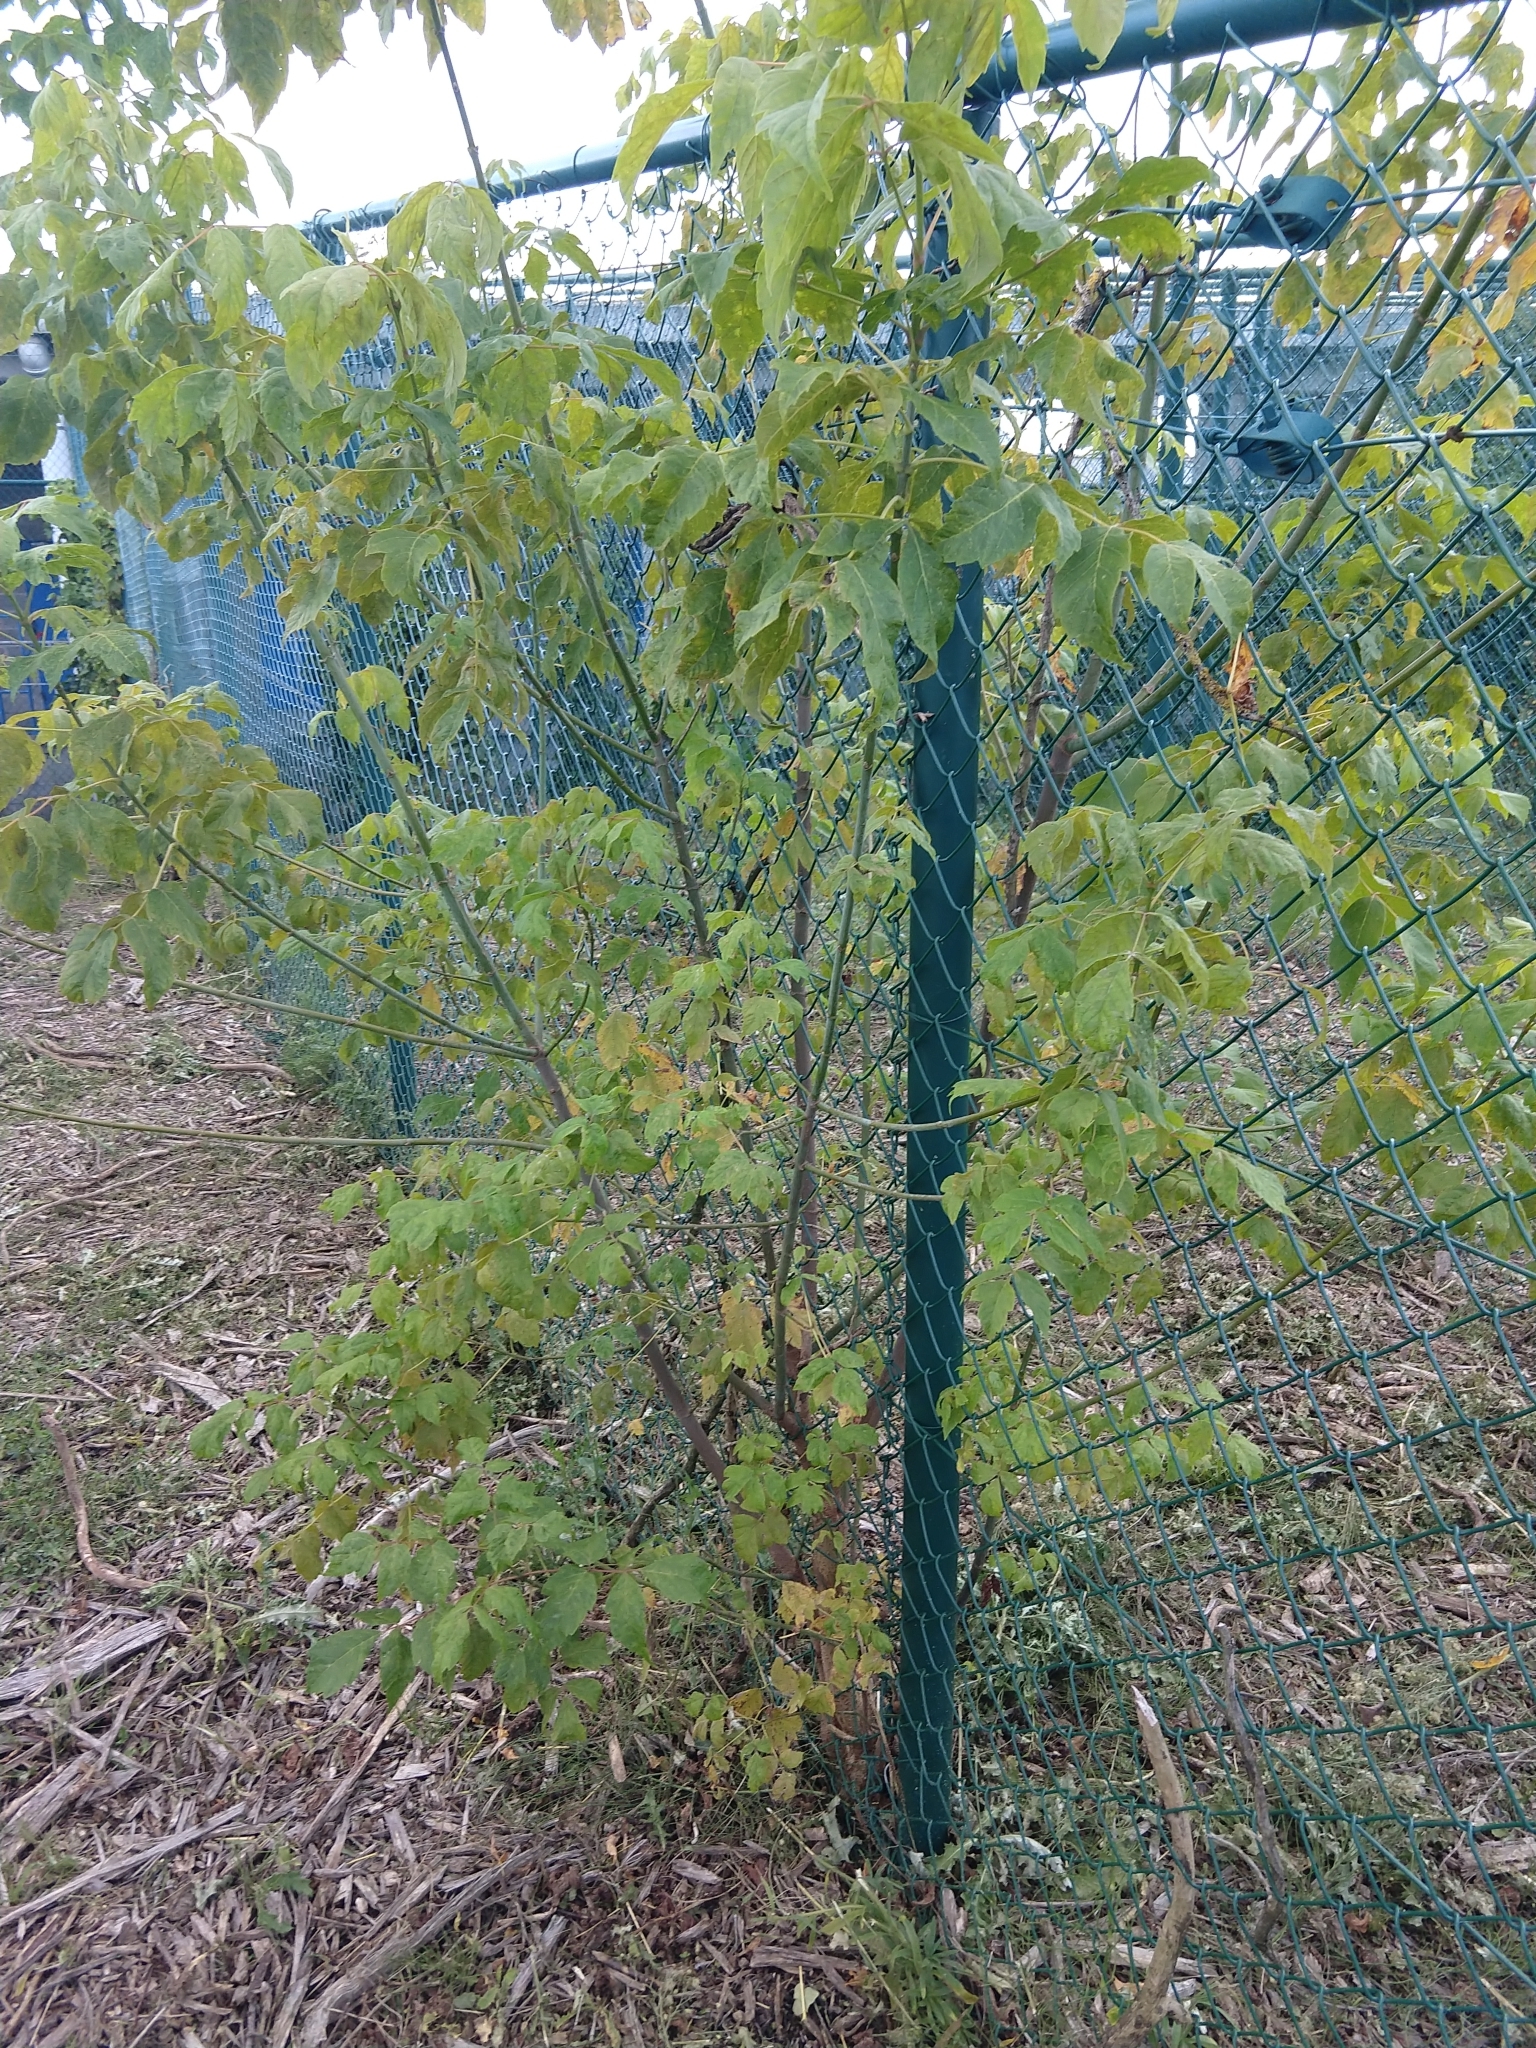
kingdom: Plantae
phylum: Tracheophyta
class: Magnoliopsida
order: Sapindales
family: Sapindaceae
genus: Acer
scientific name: Acer negundo
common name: Ashleaf maple
